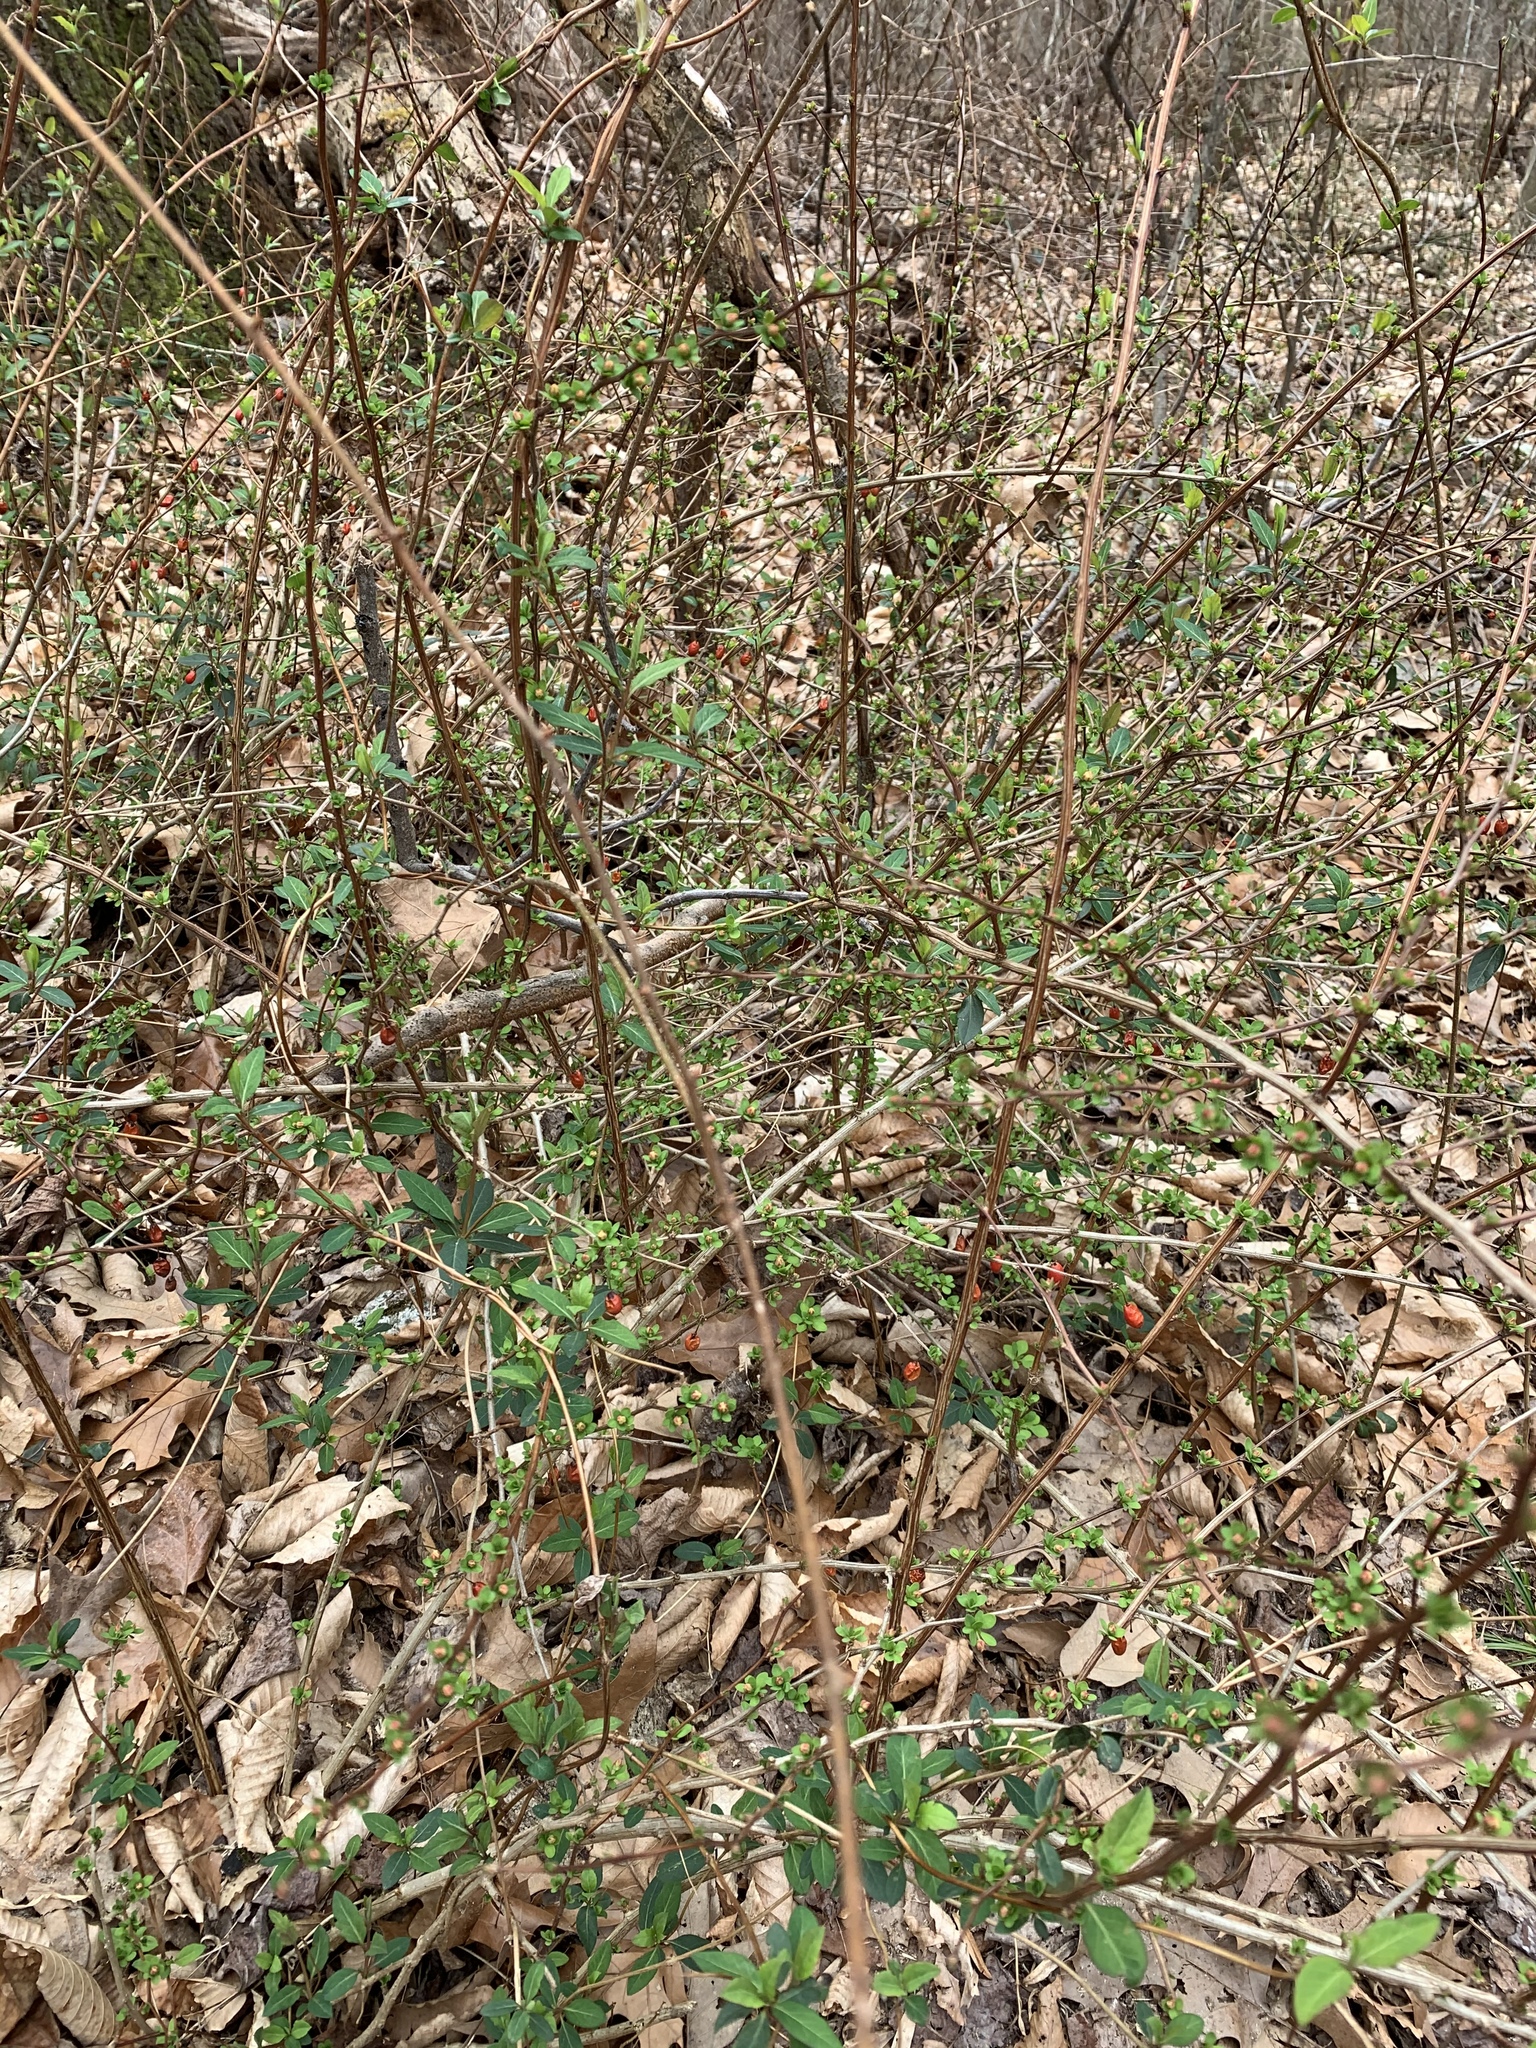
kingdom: Plantae
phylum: Tracheophyta
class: Magnoliopsida
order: Ranunculales
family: Berberidaceae
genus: Berberis
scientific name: Berberis thunbergii
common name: Japanese barberry
